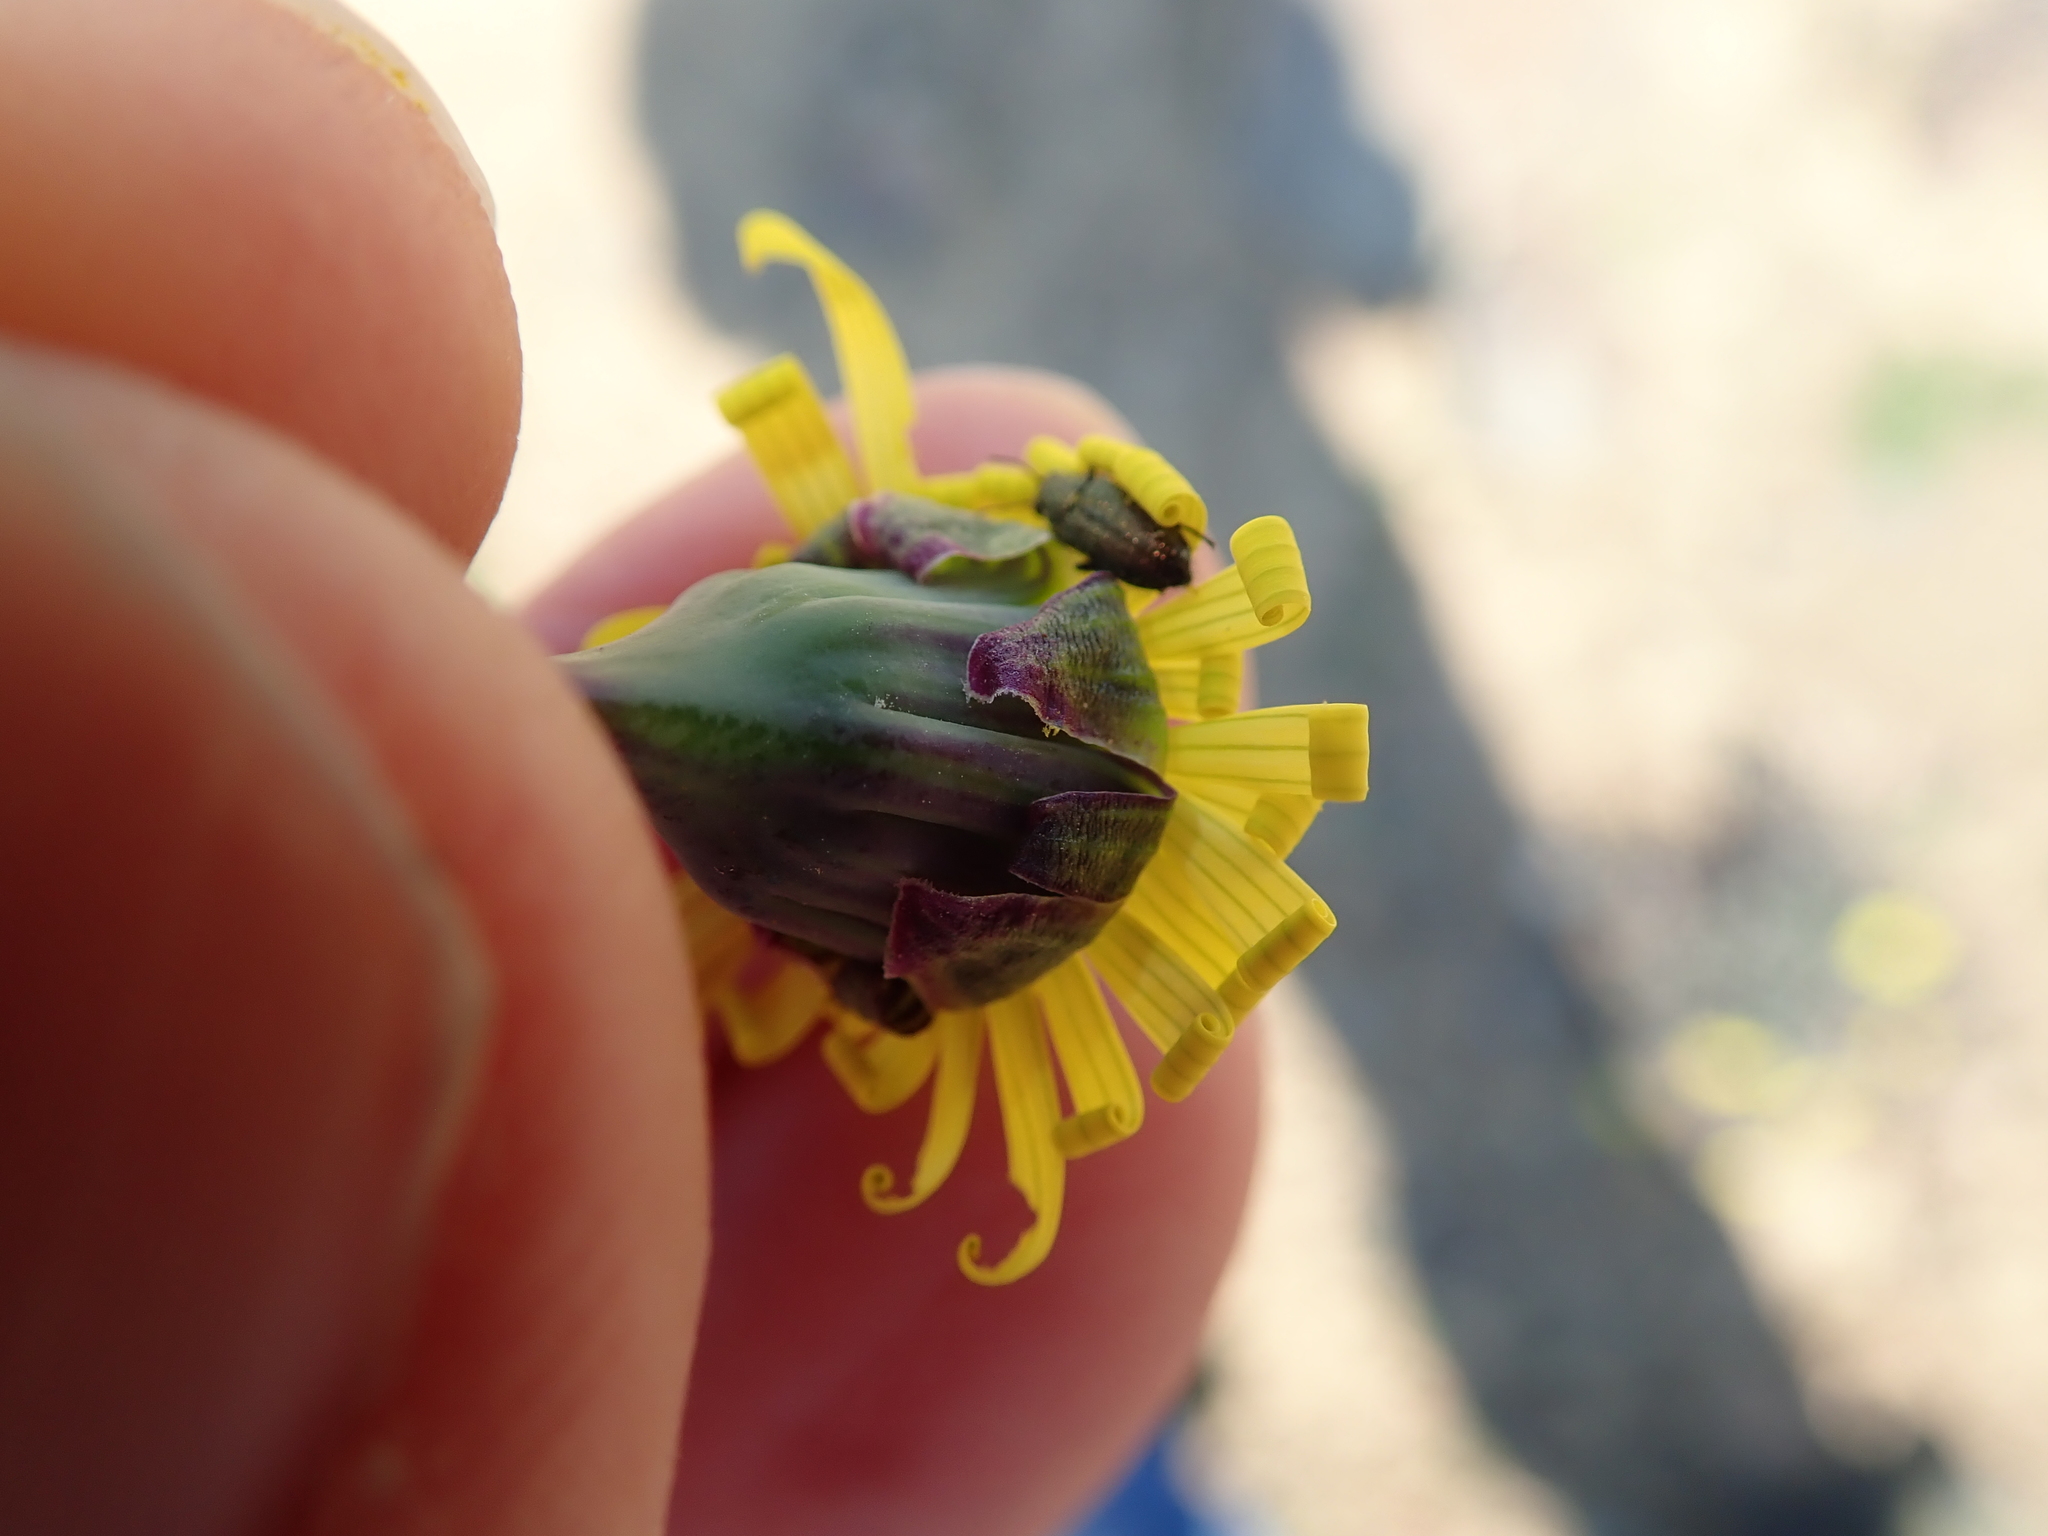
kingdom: Plantae
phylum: Tracheophyta
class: Magnoliopsida
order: Asterales
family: Asteraceae
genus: Crassothonna
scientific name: Crassothonna protecta
